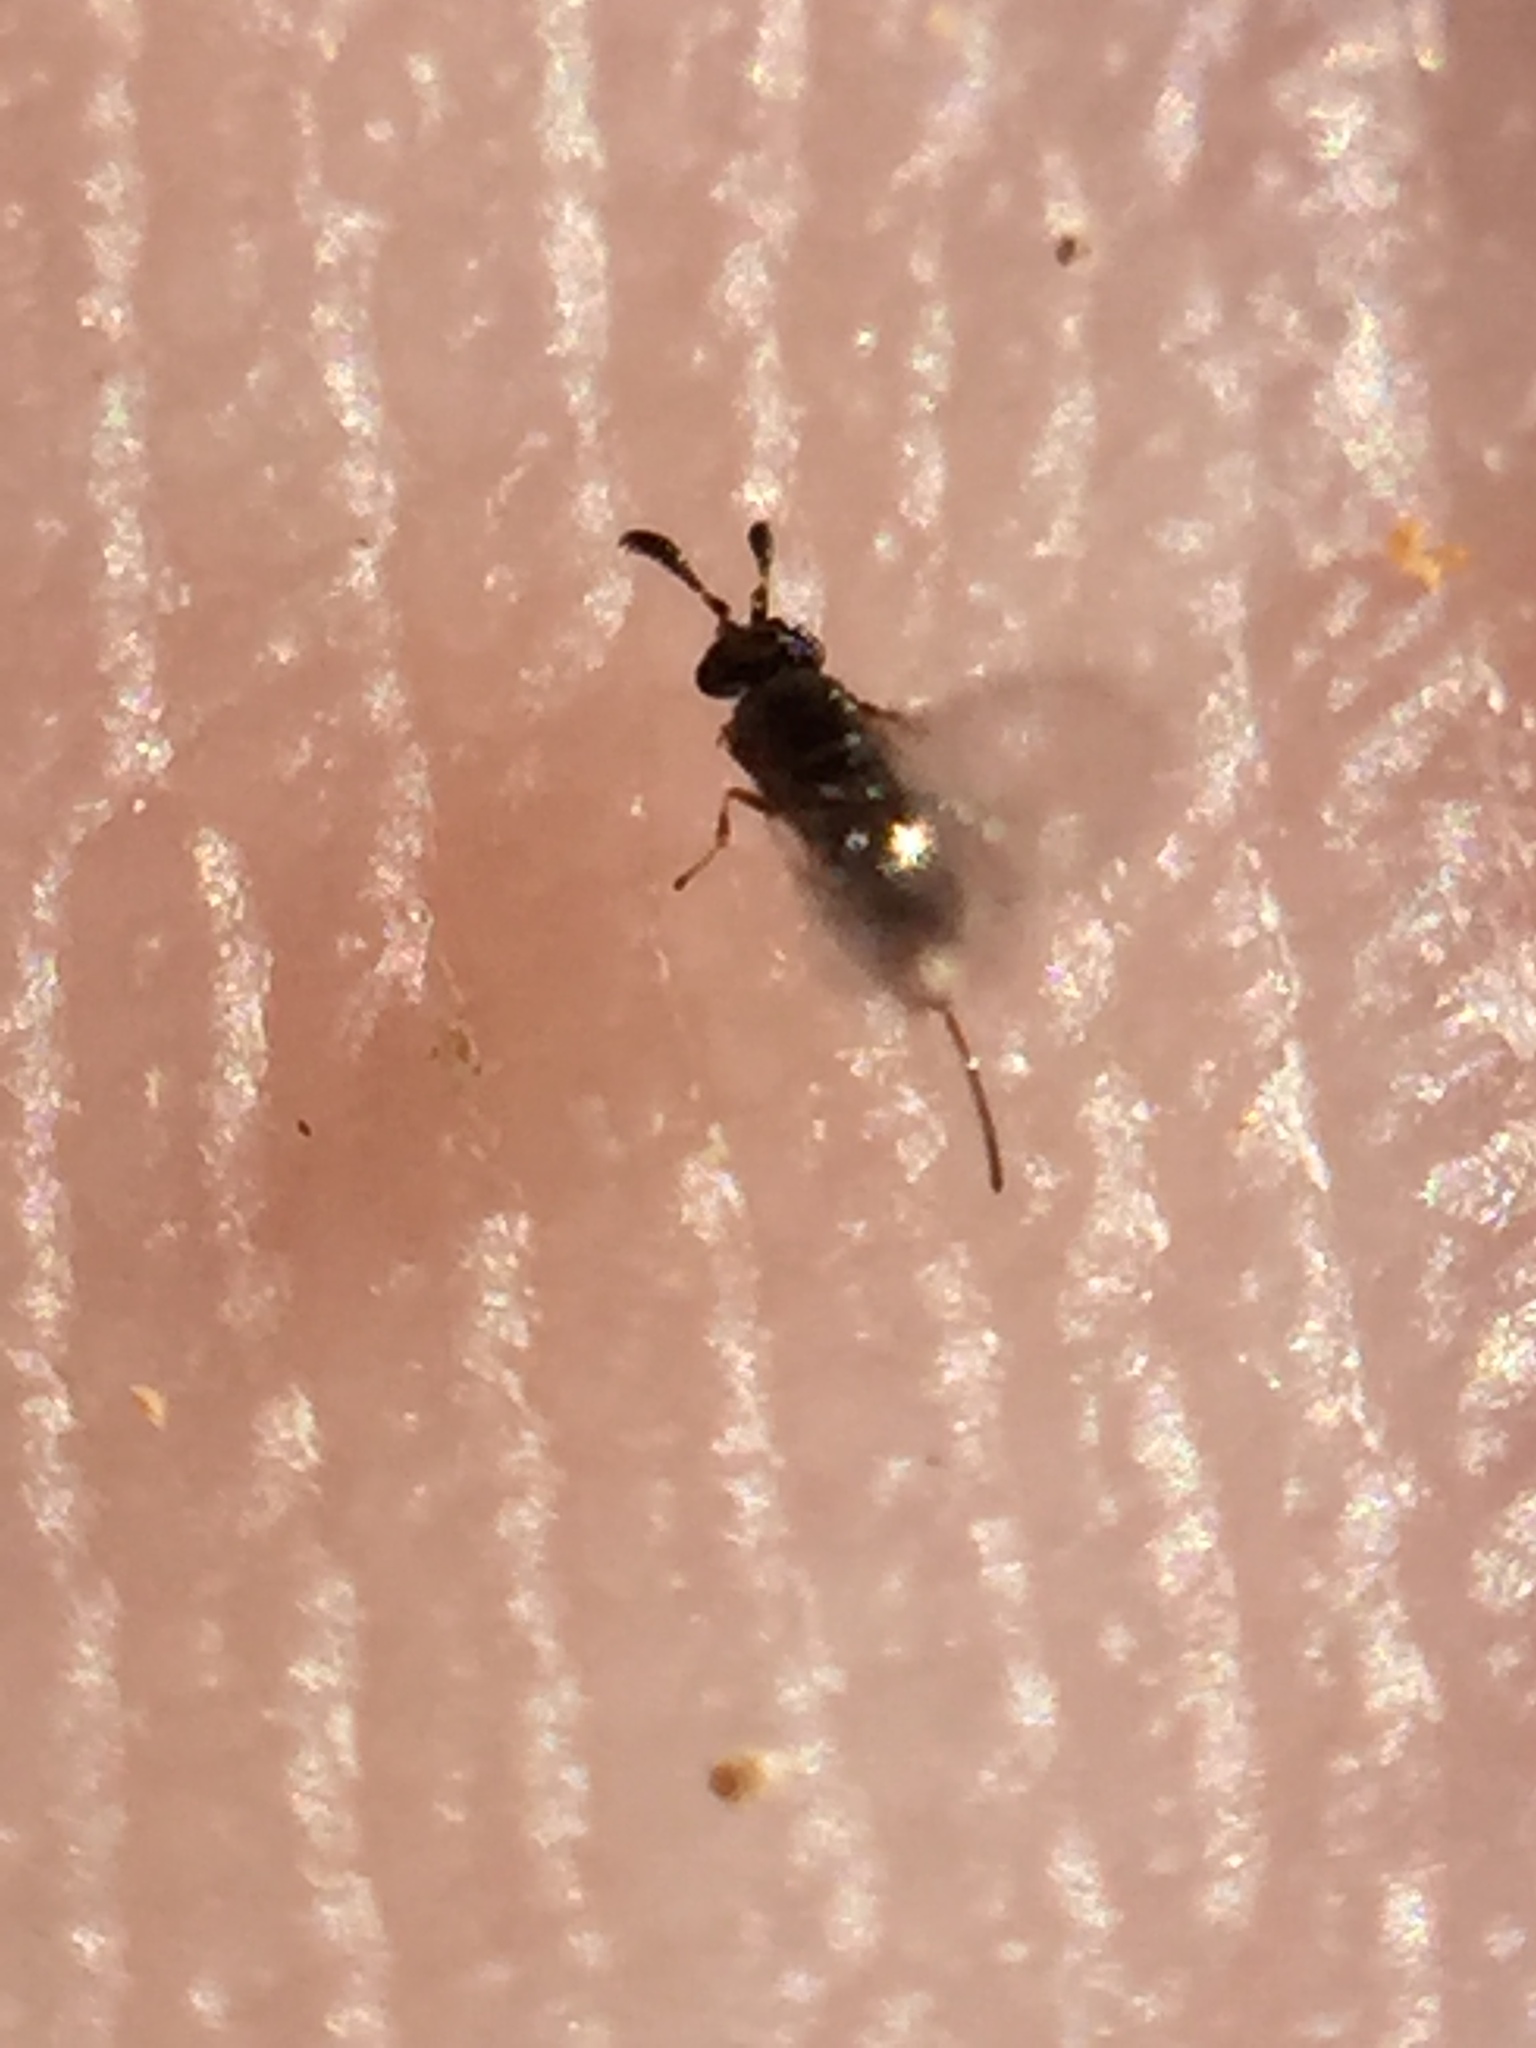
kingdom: Animalia
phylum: Arthropoda
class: Insecta
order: Hymenoptera
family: Agaonidae
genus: Eupristina
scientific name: Eupristina verticillata
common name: Fig wasp
